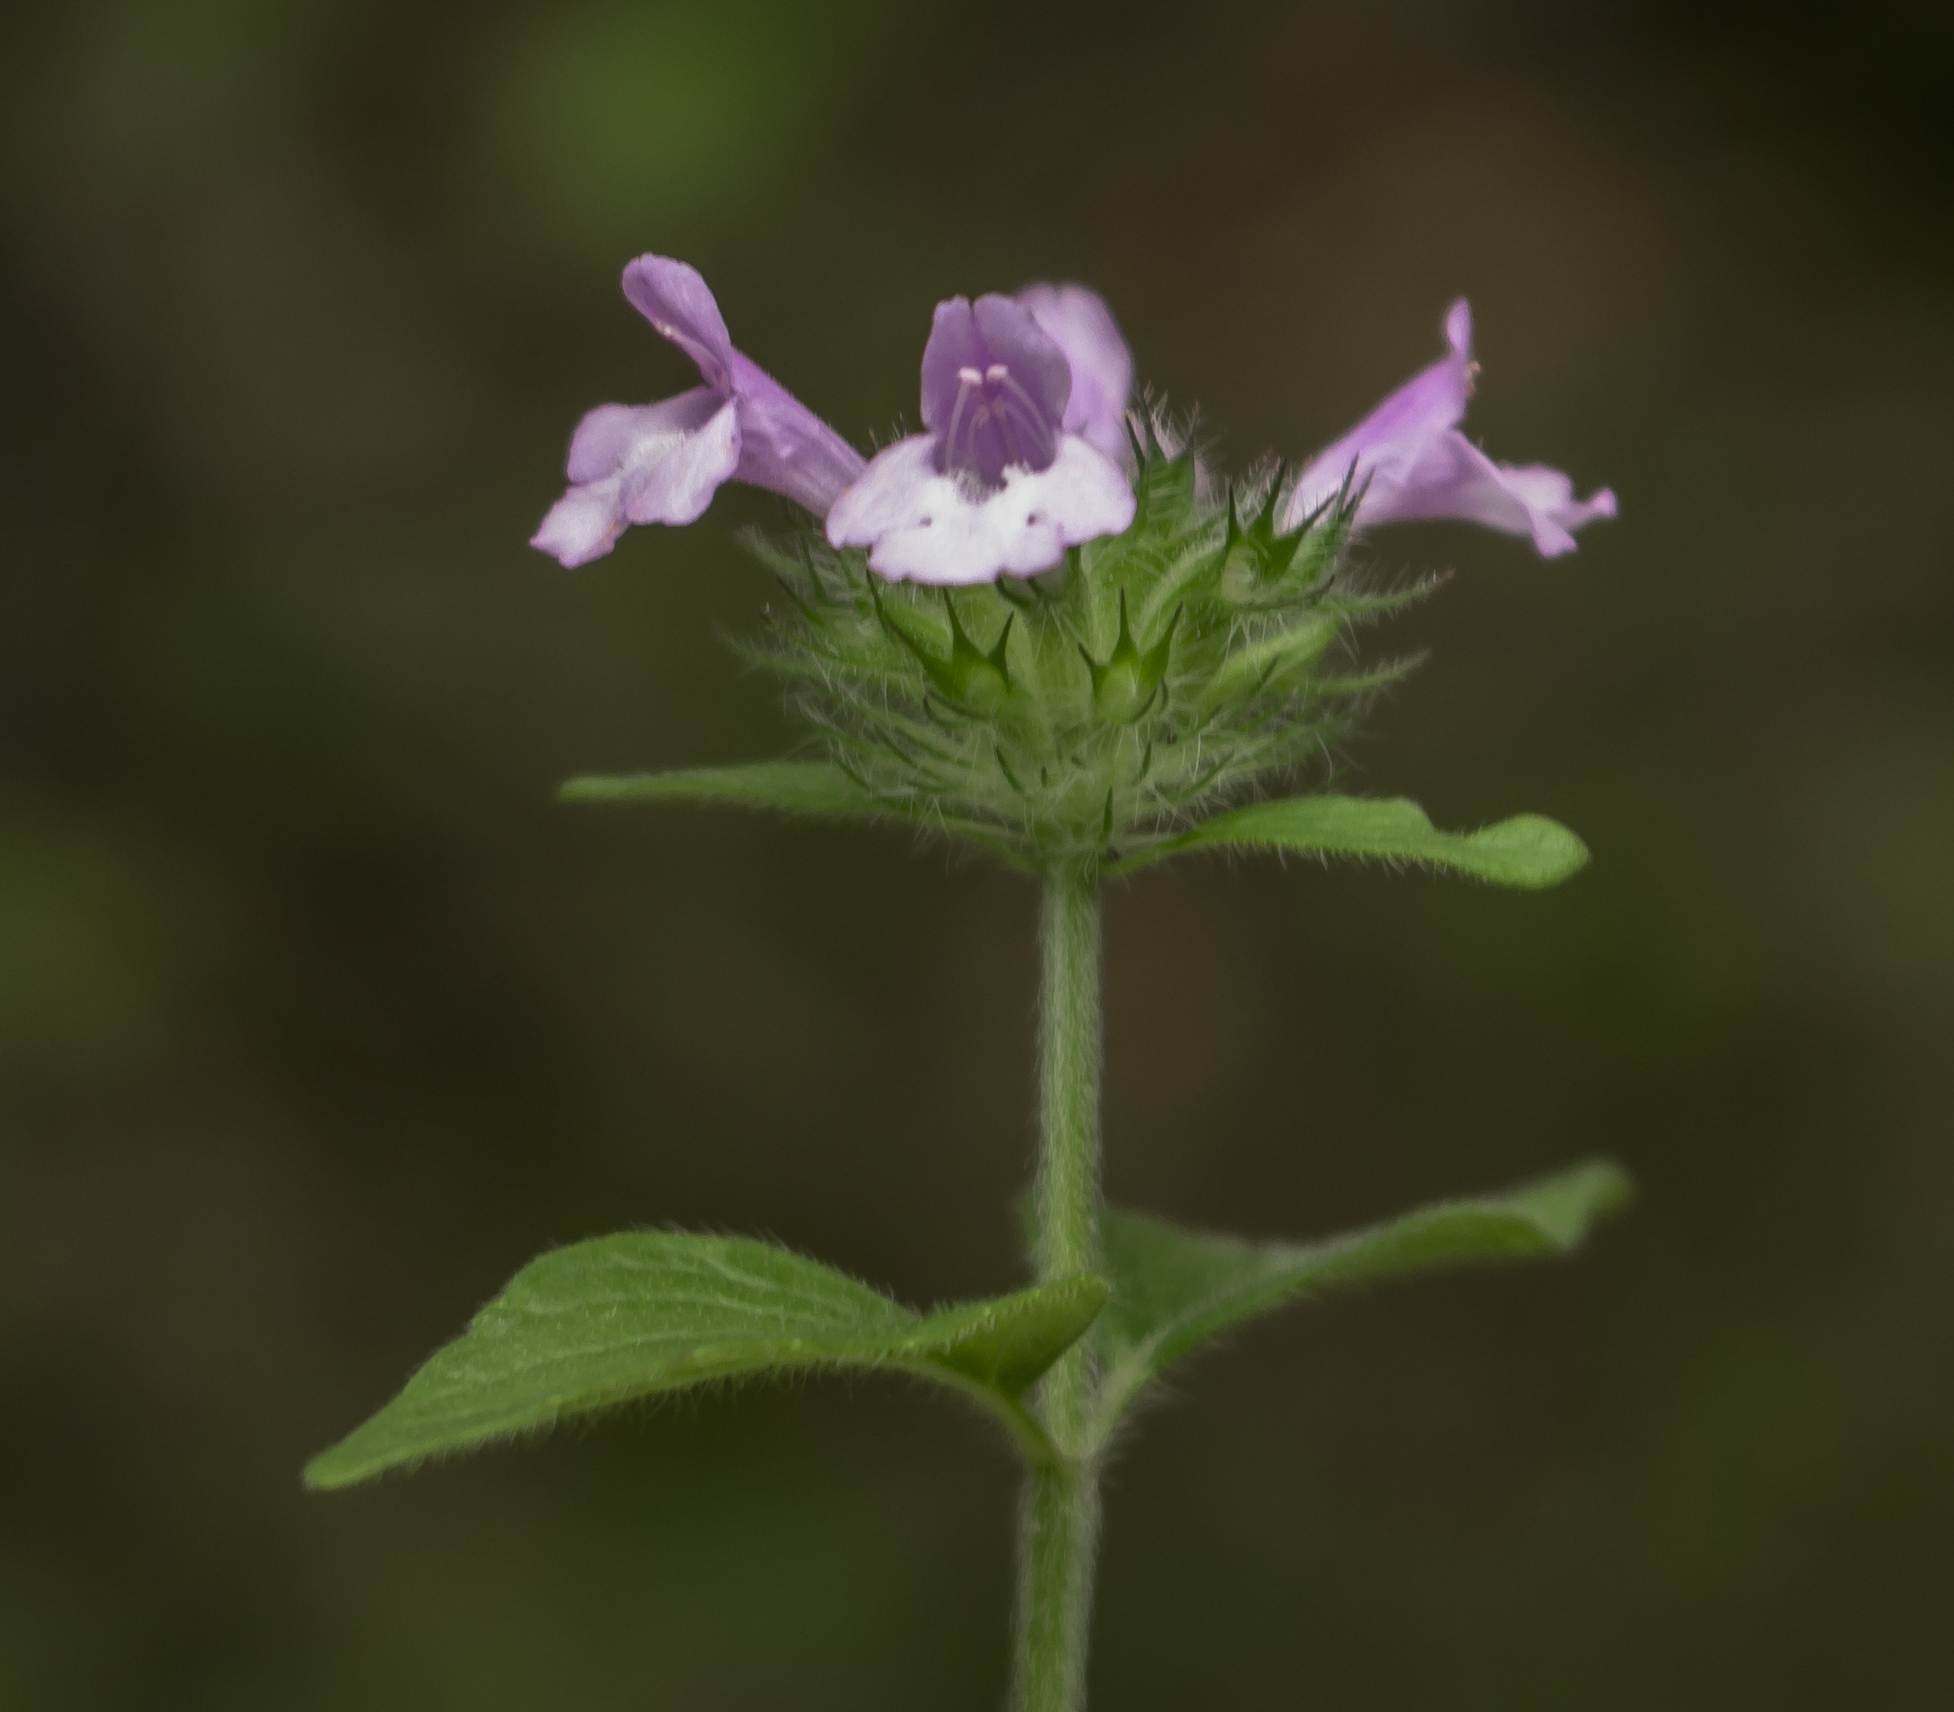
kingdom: Plantae
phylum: Tracheophyta
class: Magnoliopsida
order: Lamiales
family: Lamiaceae
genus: Clinopodium
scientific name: Clinopodium vulgare
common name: Wild basil
